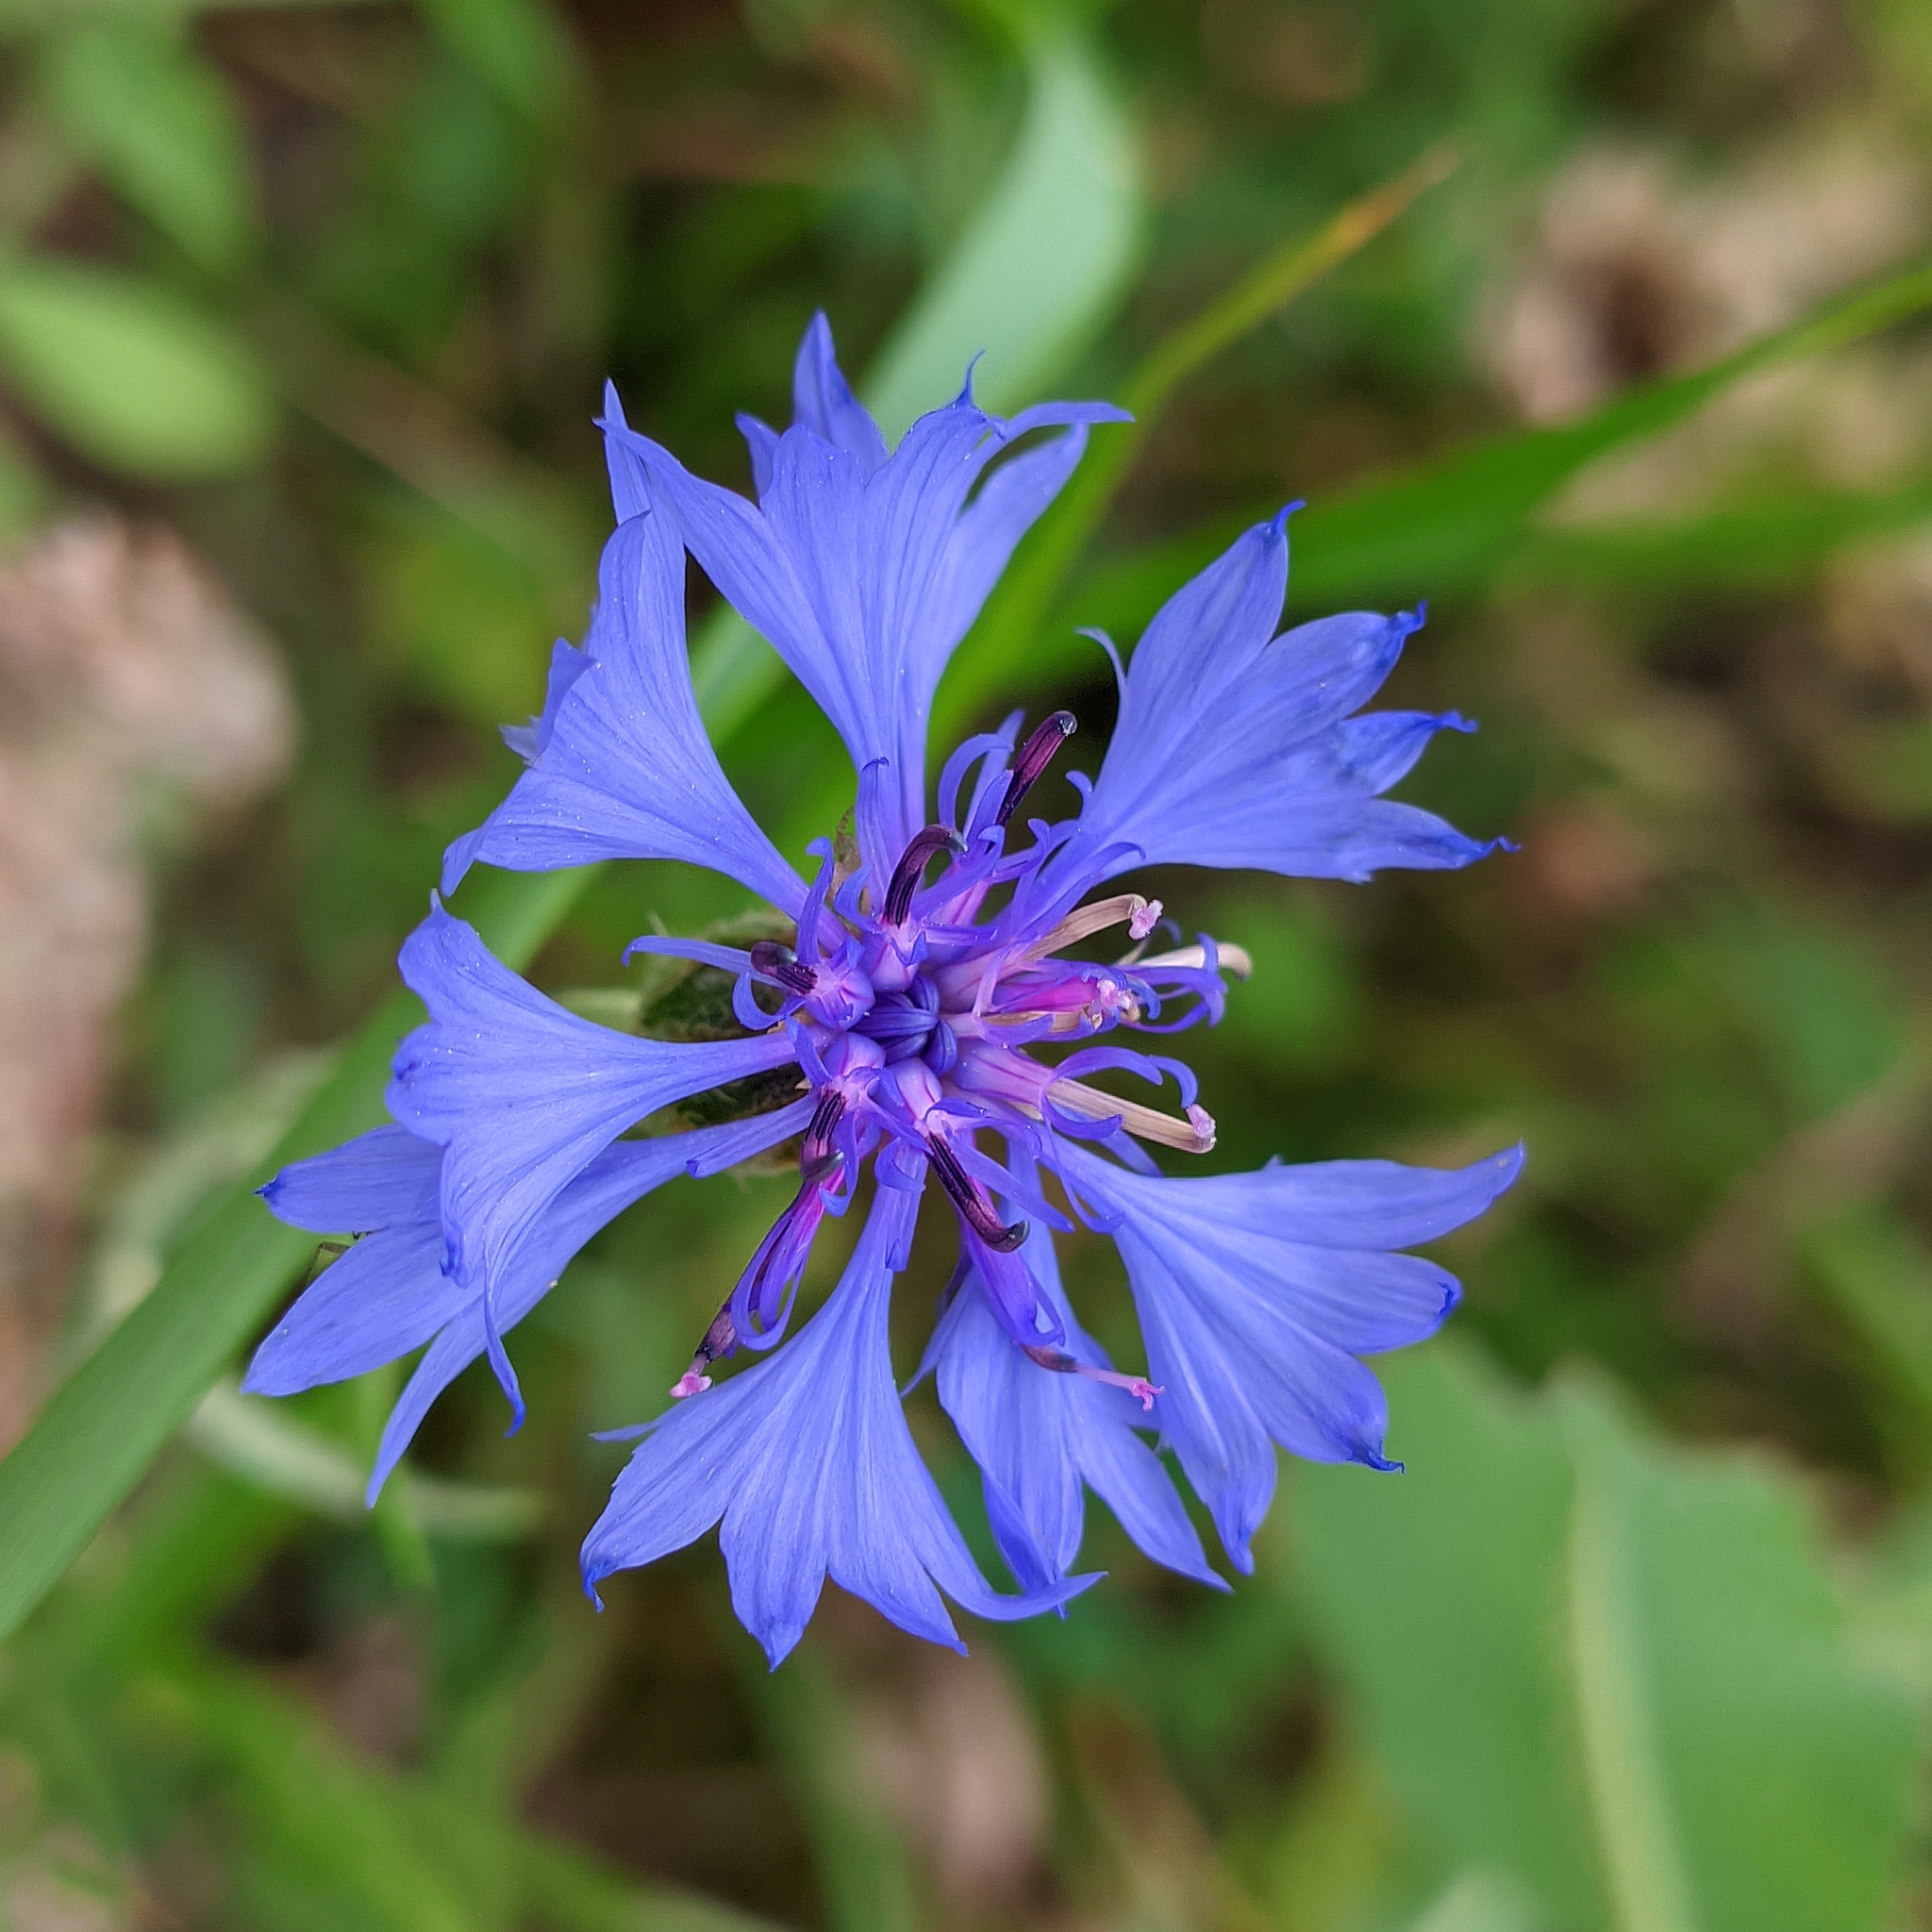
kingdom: Plantae
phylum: Tracheophyta
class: Magnoliopsida
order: Asterales
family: Asteraceae
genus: Centaurea
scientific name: Centaurea cyanus
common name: Cornflower
